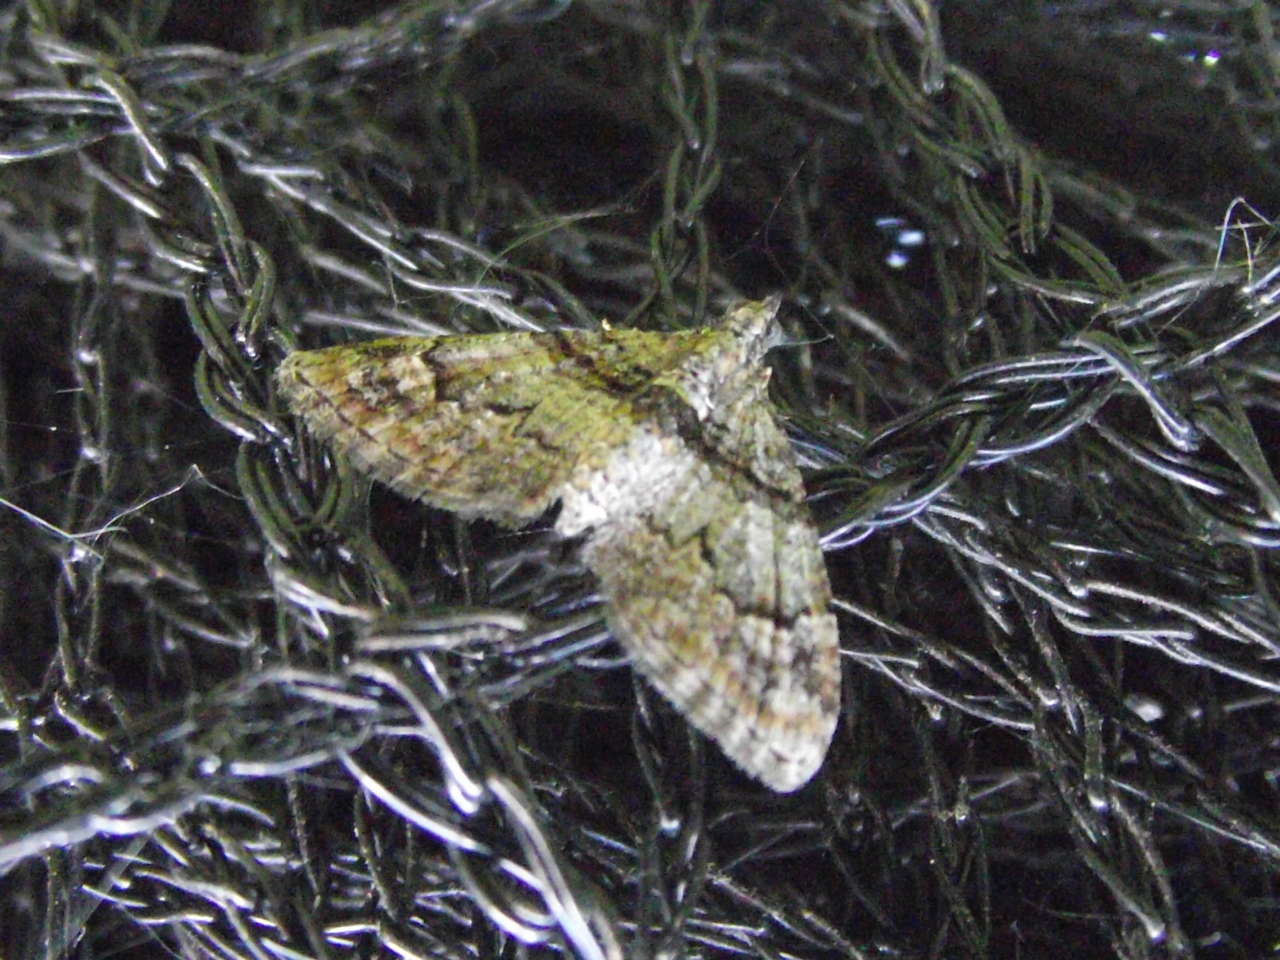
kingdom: Animalia
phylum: Arthropoda
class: Insecta
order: Lepidoptera
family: Geometridae
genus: Phrissogonus
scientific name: Phrissogonus laticostata
